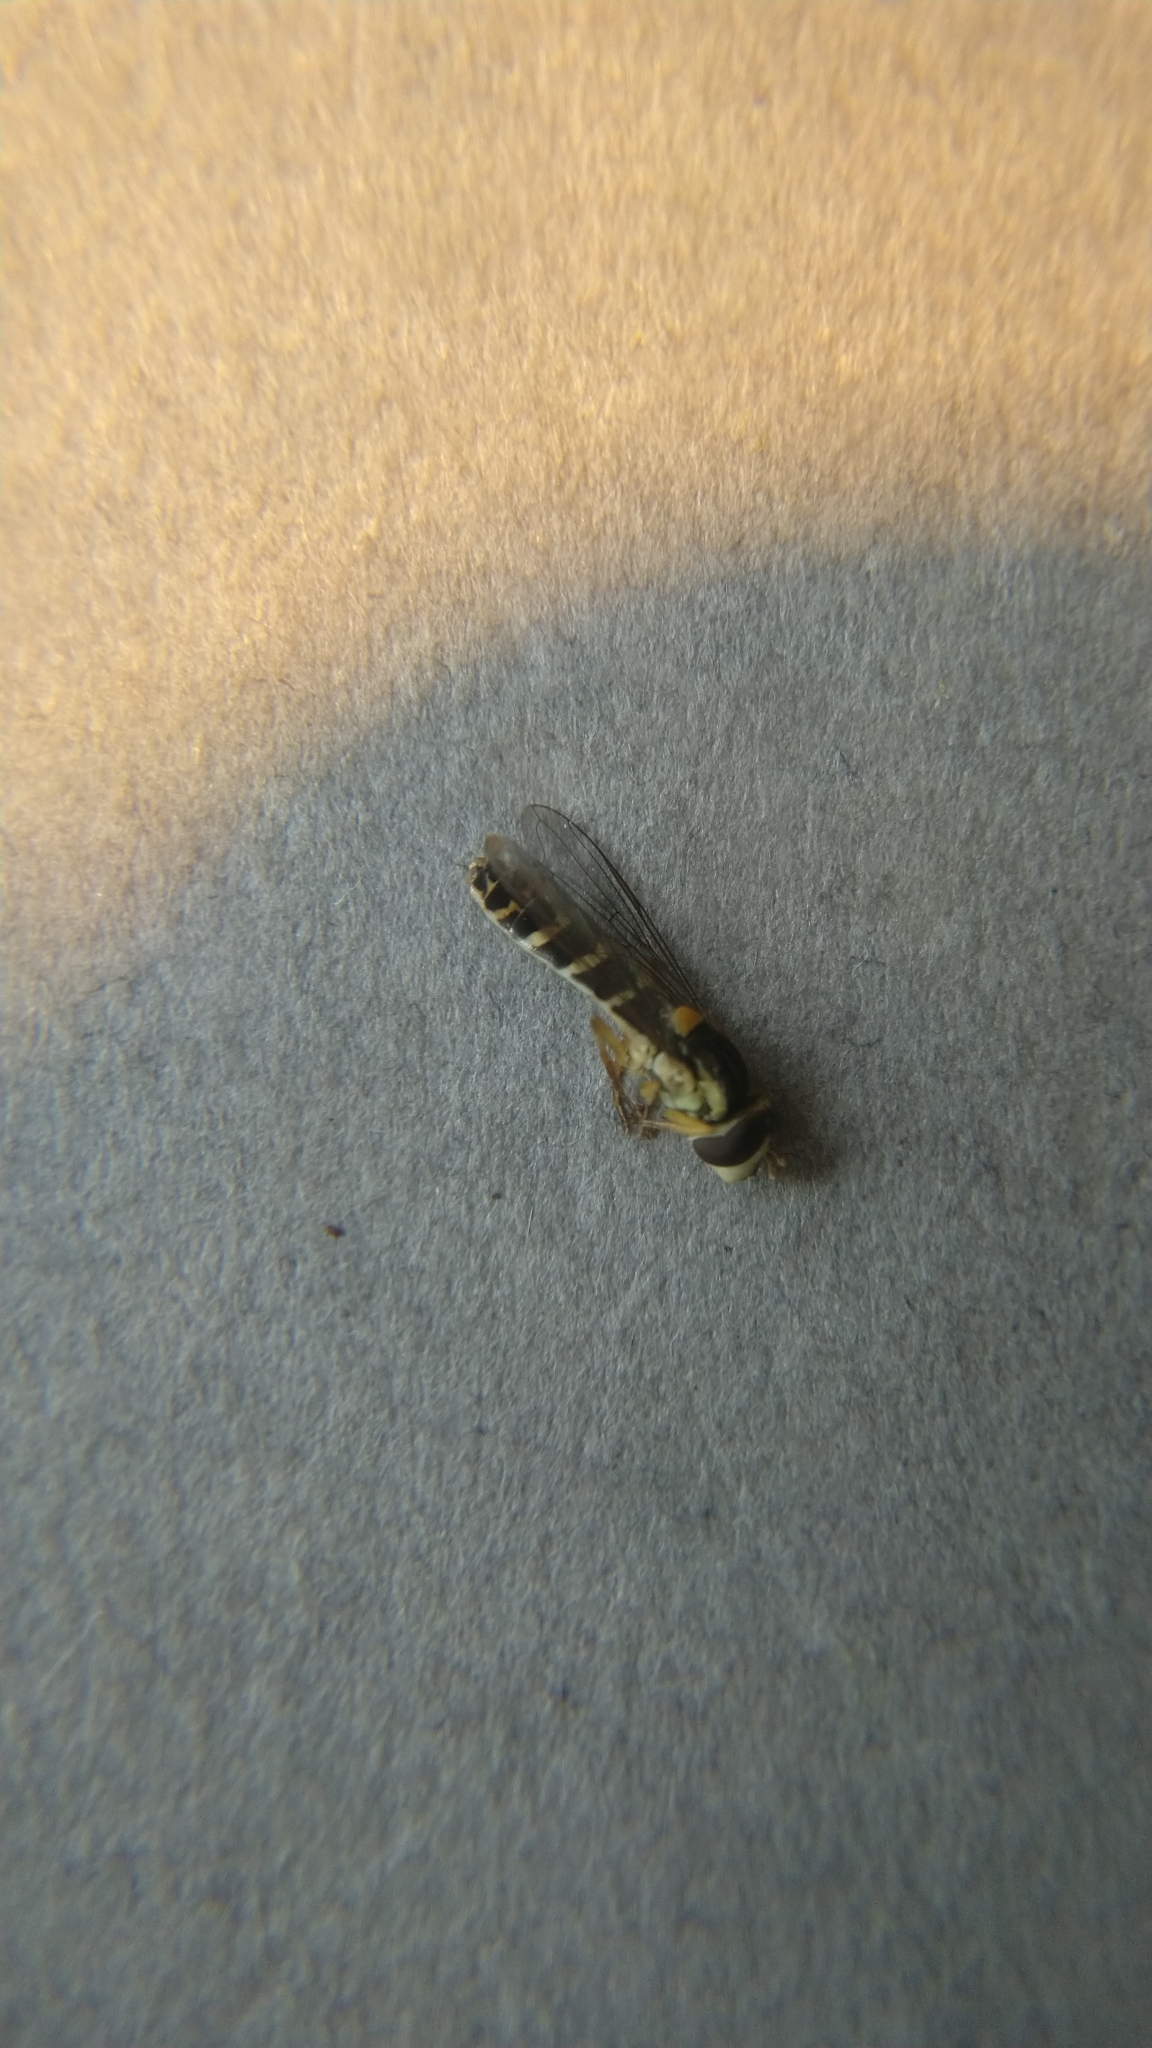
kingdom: Animalia
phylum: Arthropoda
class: Insecta
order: Diptera
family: Syrphidae
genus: Sphaerophoria
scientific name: Sphaerophoria
